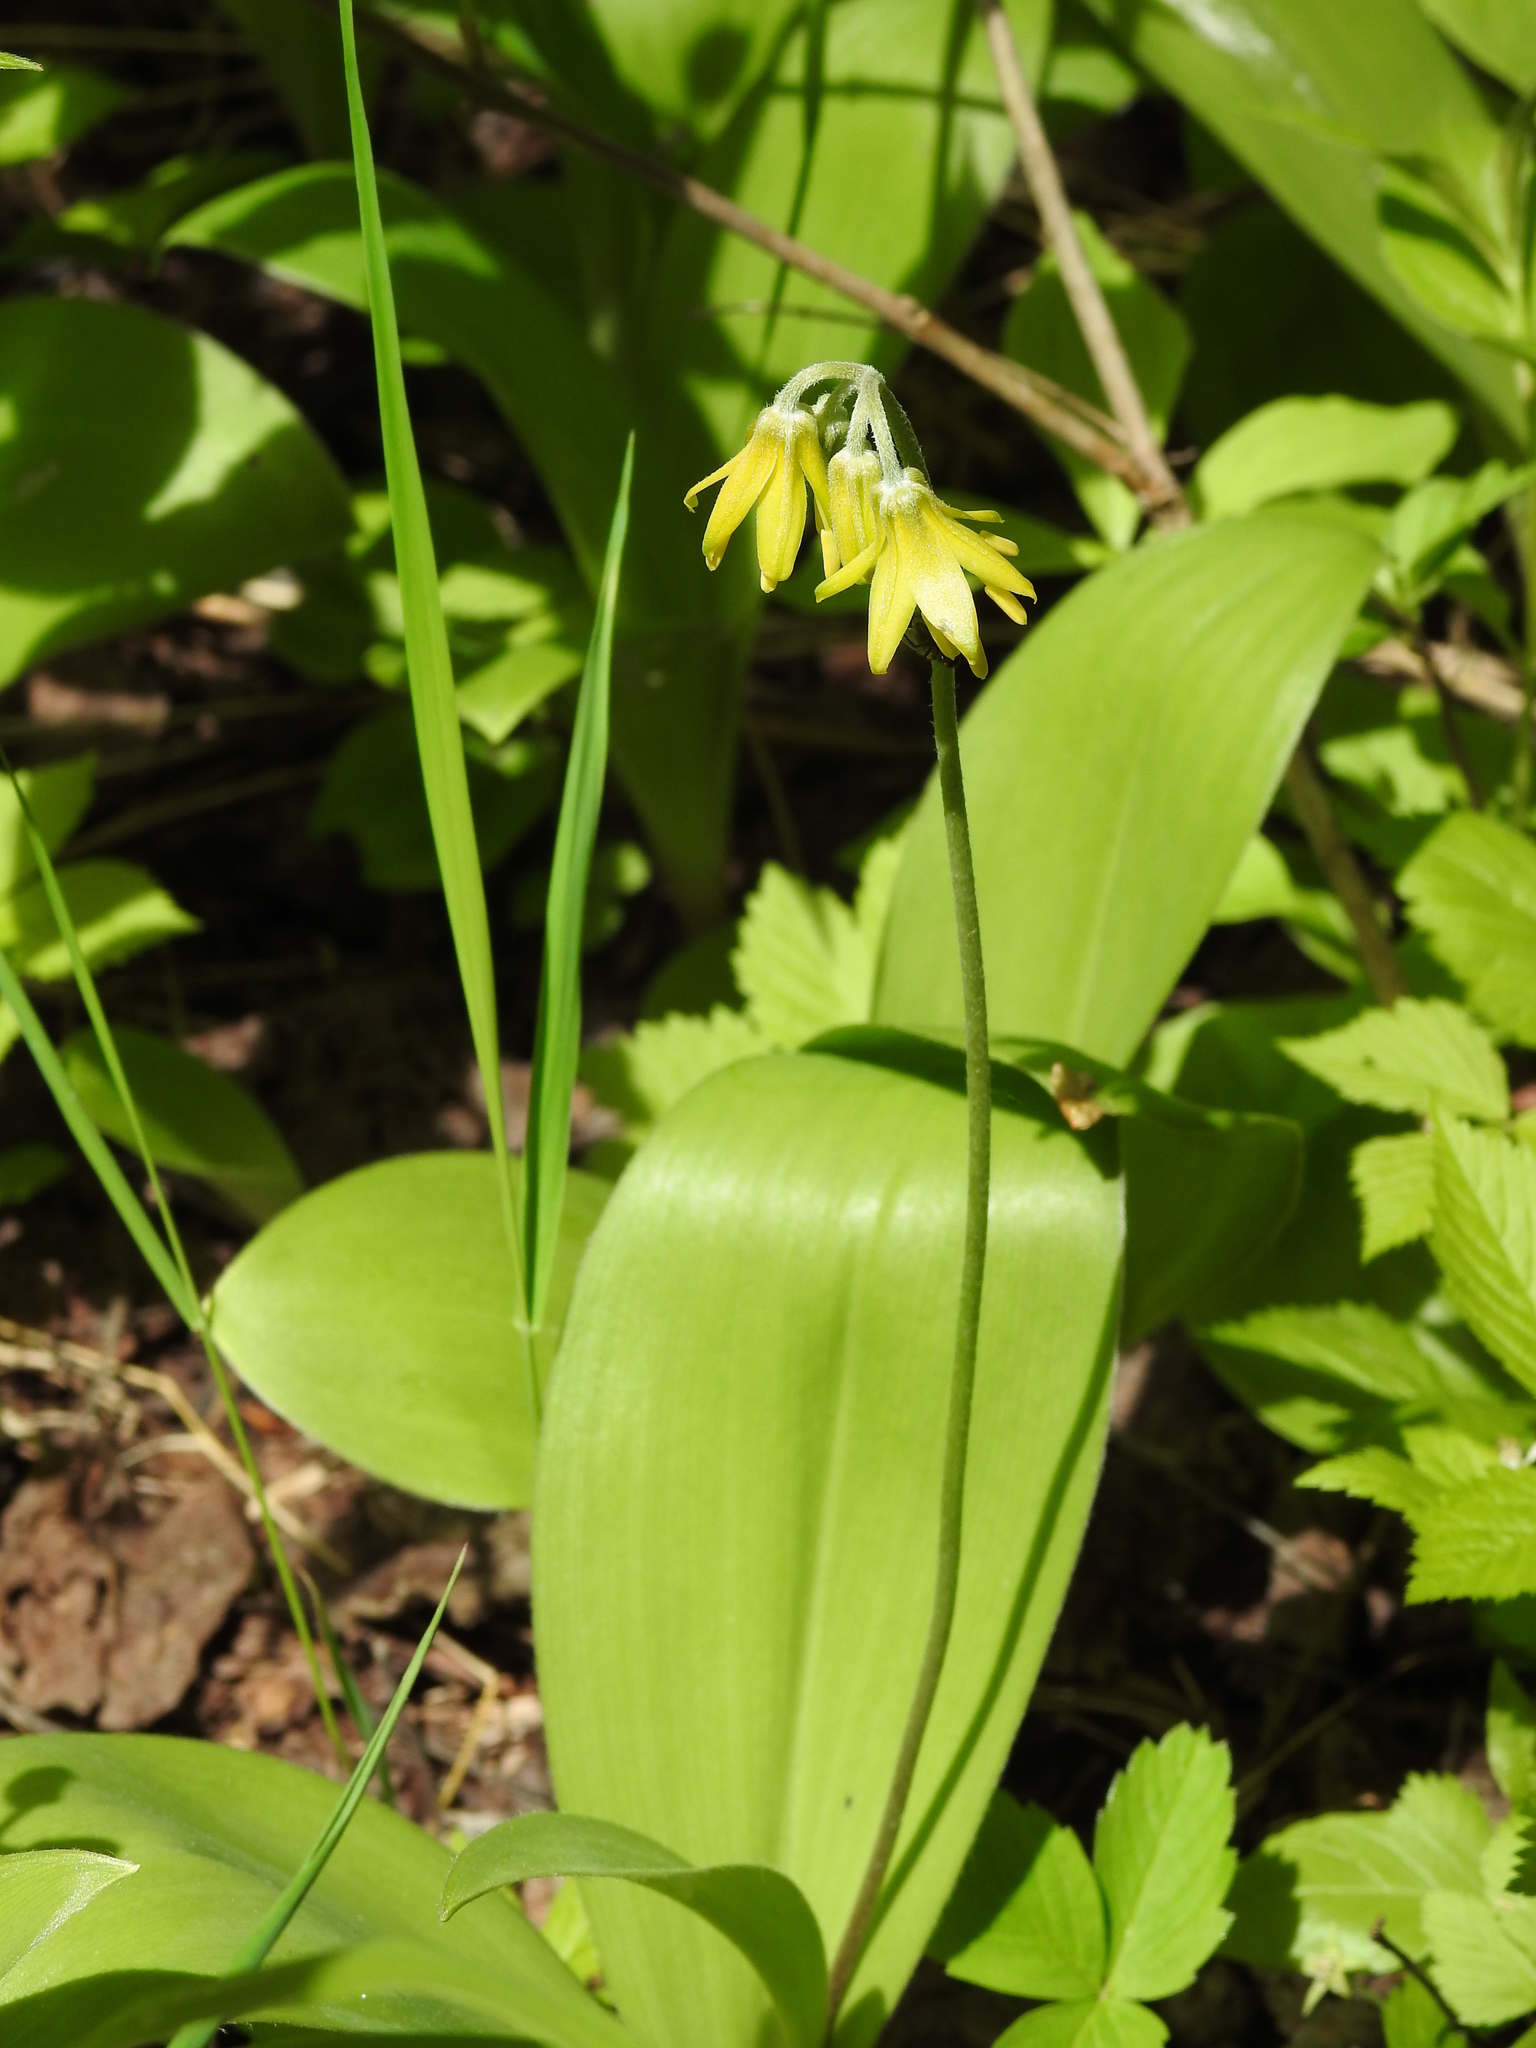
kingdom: Plantae
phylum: Tracheophyta
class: Liliopsida
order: Liliales
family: Liliaceae
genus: Clintonia
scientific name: Clintonia borealis
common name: Yellow clintonia
